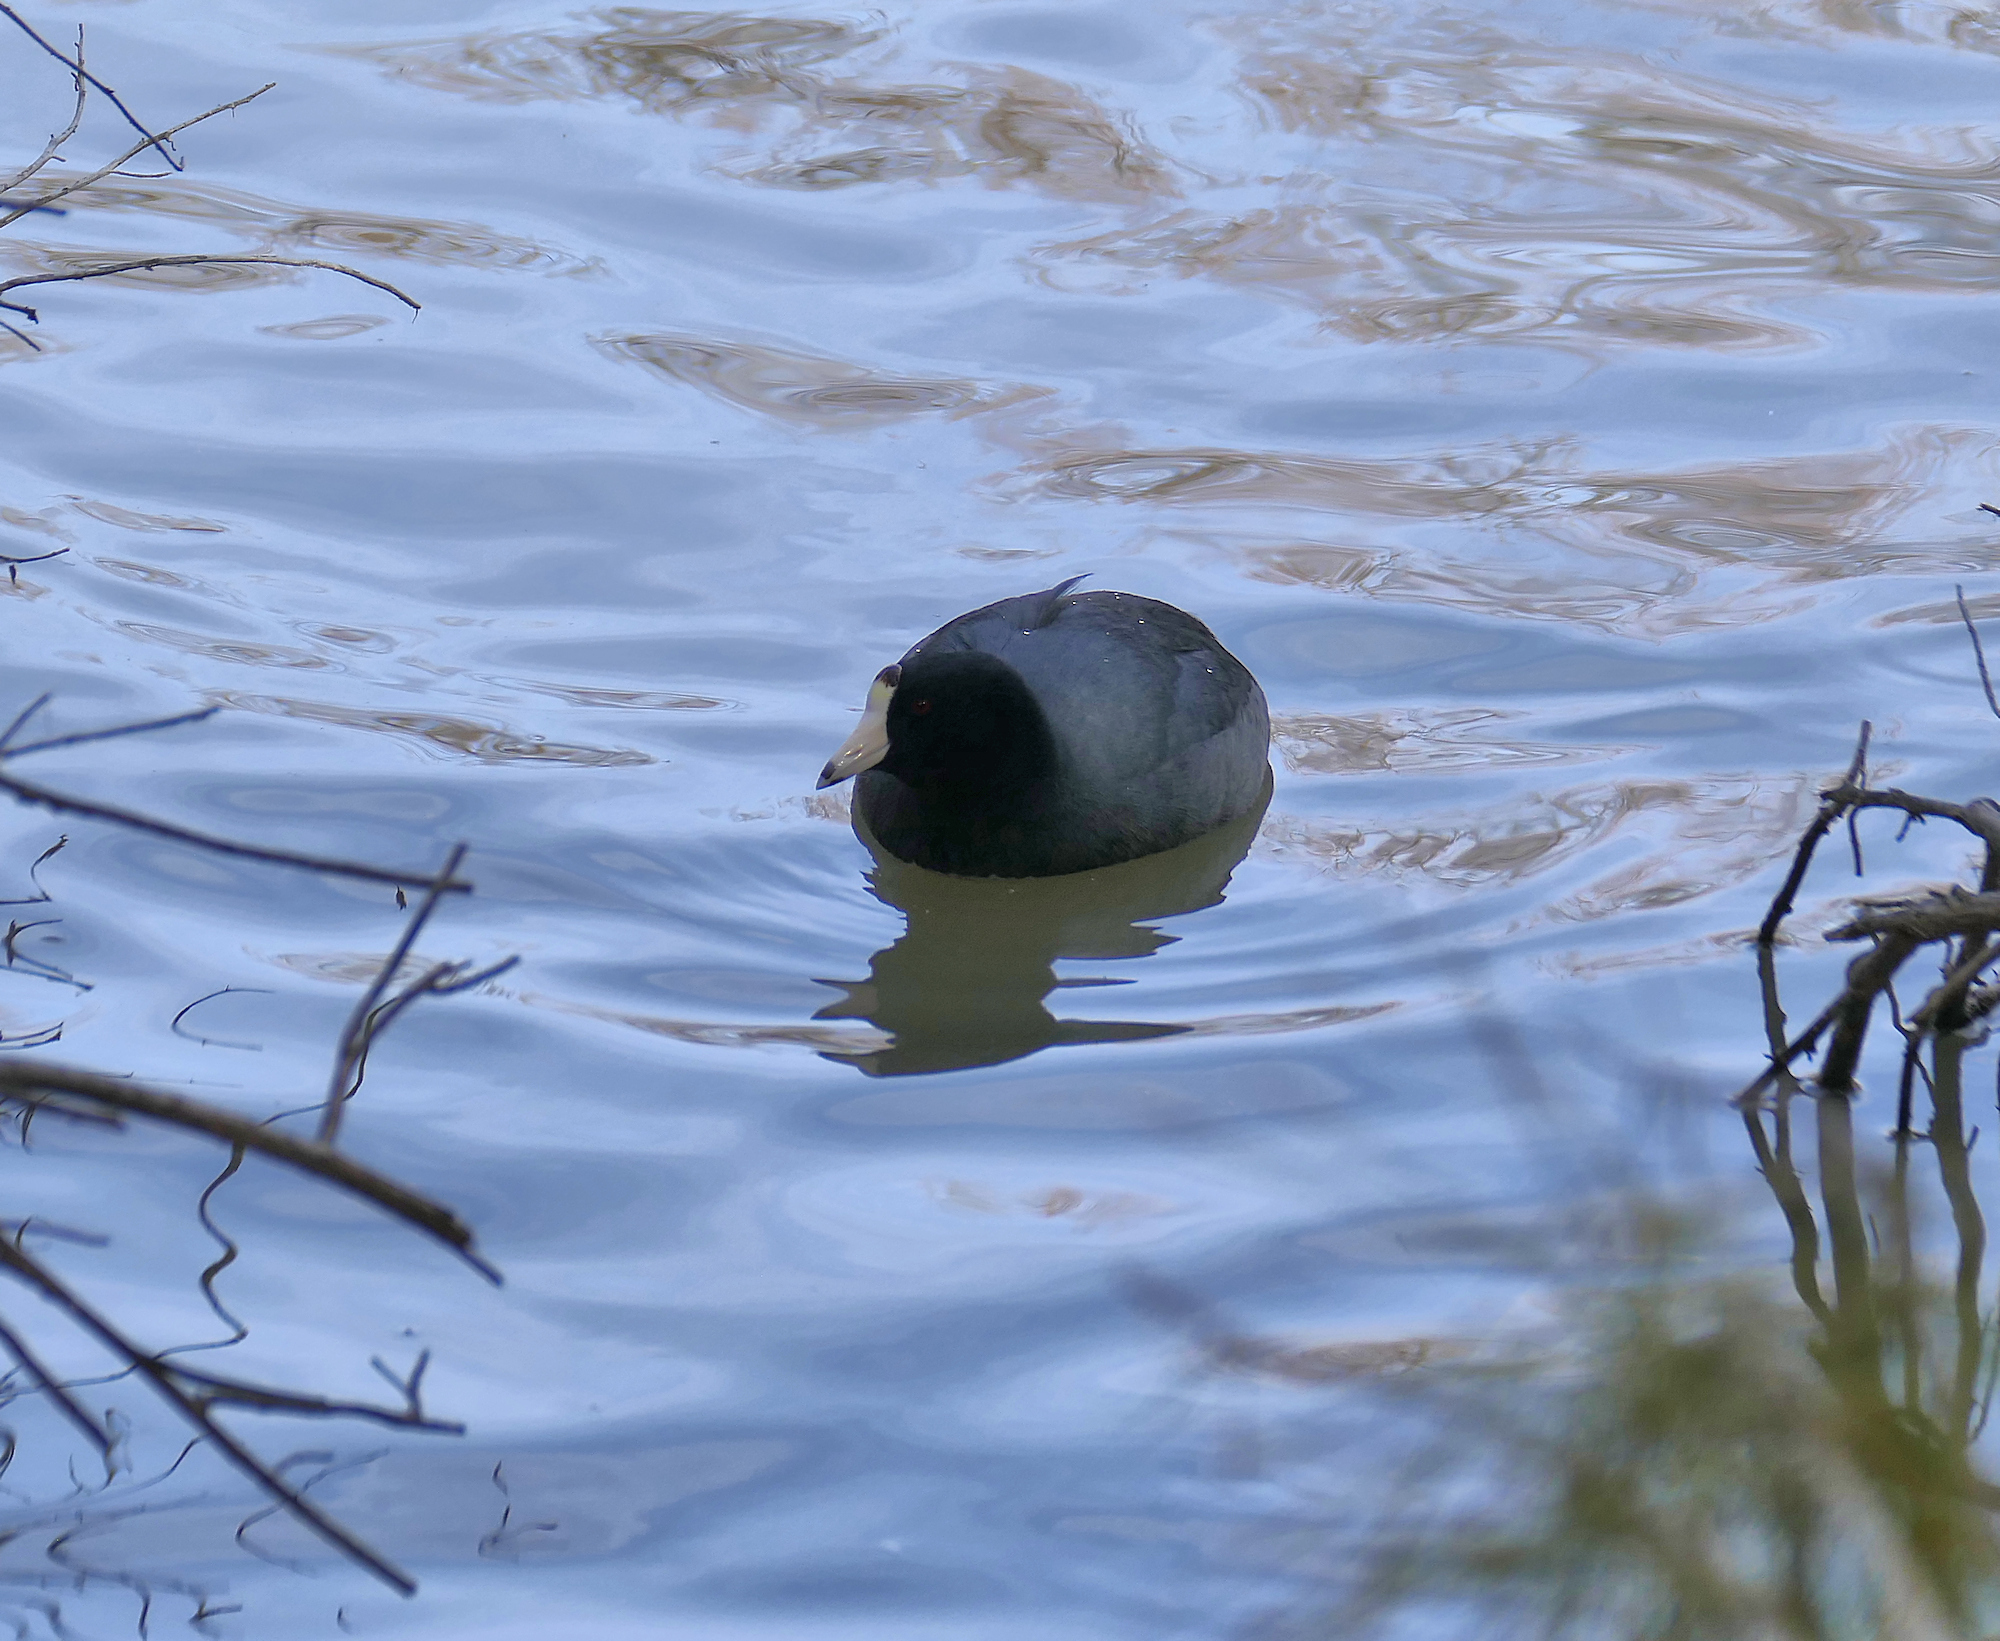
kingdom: Animalia
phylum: Chordata
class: Aves
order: Gruiformes
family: Rallidae
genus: Fulica
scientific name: Fulica americana
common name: American coot
